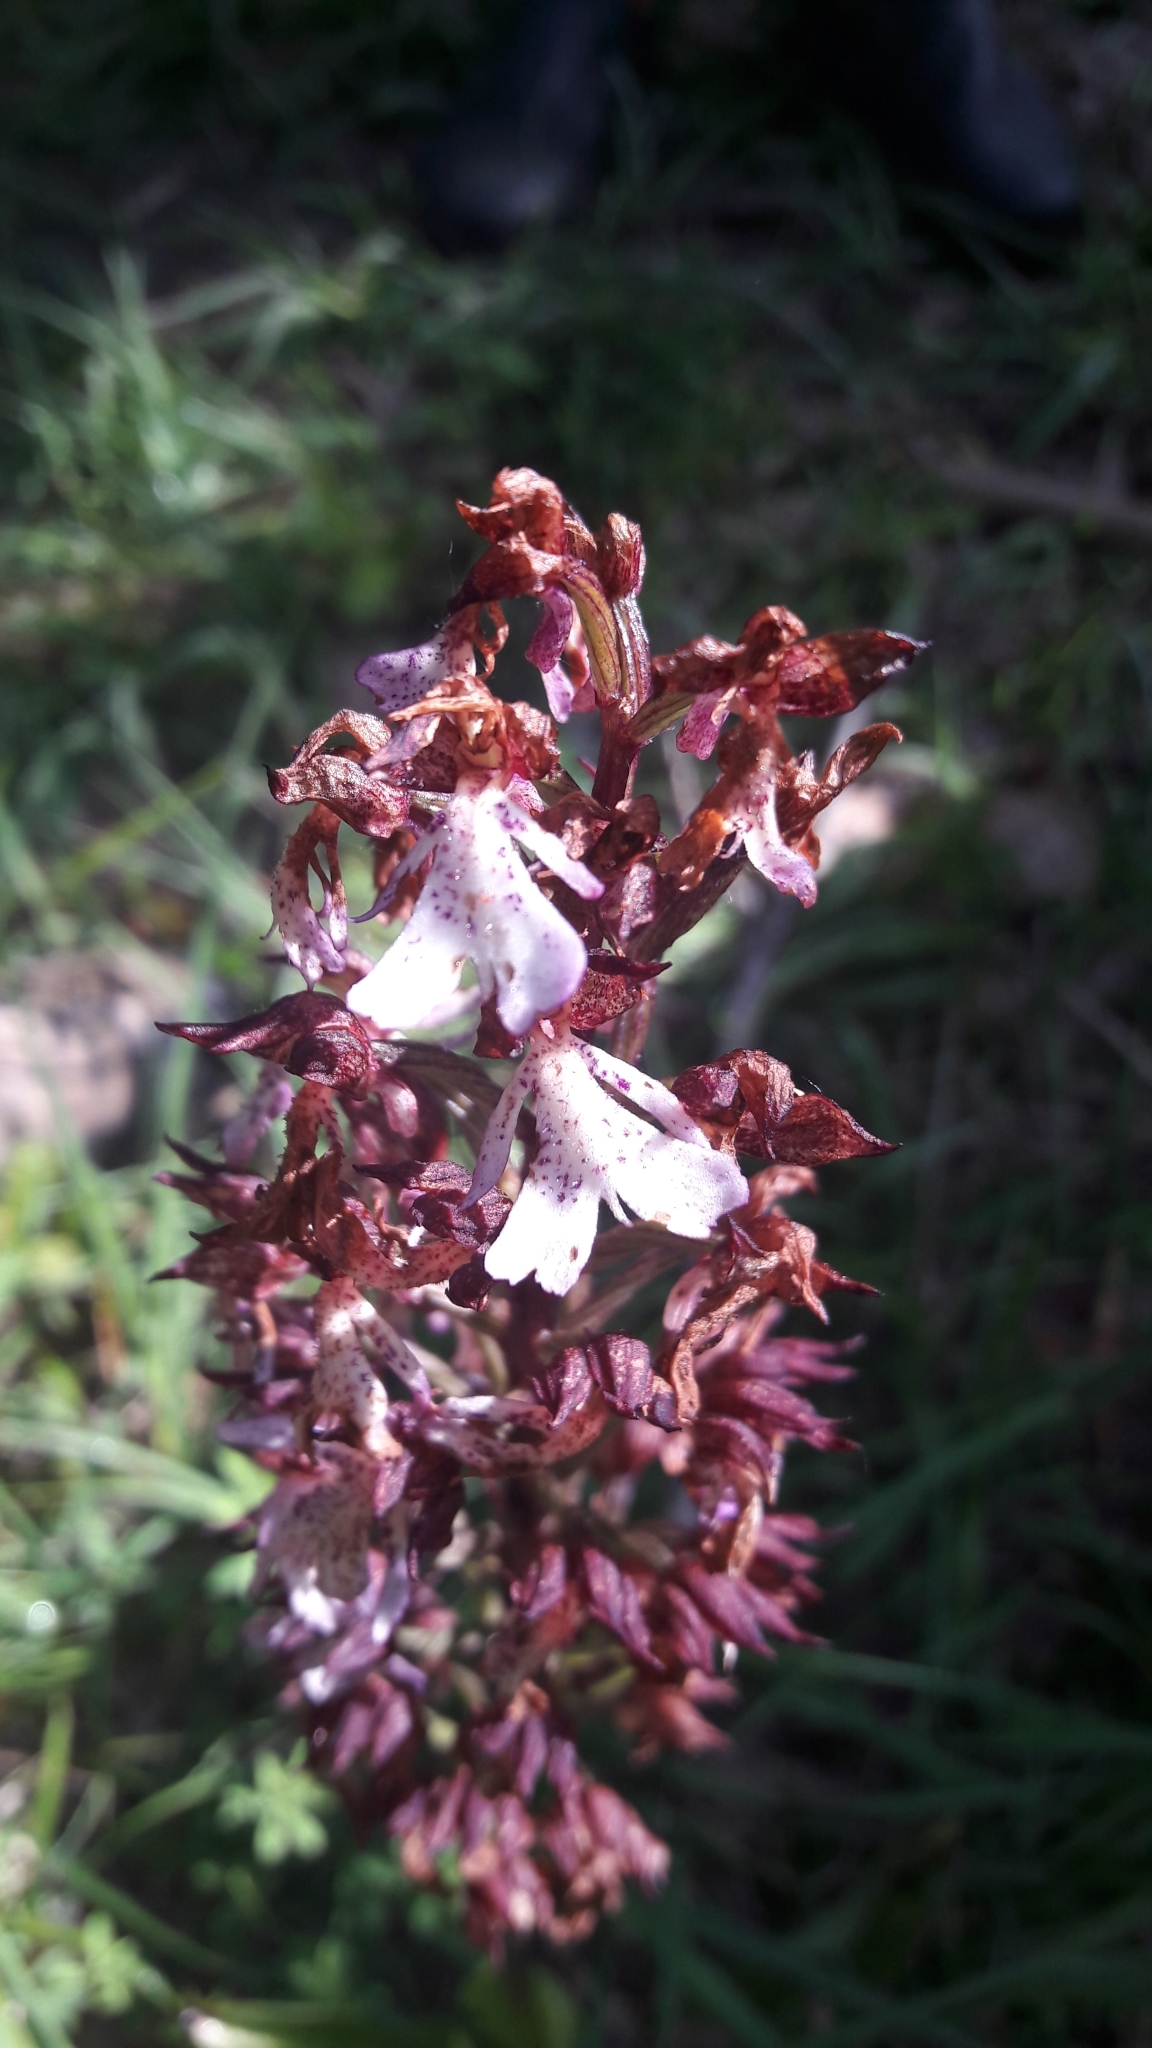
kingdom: Plantae
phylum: Tracheophyta
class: Liliopsida
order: Asparagales
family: Orchidaceae
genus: Orchis
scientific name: Orchis purpurea
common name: Lady orchid
